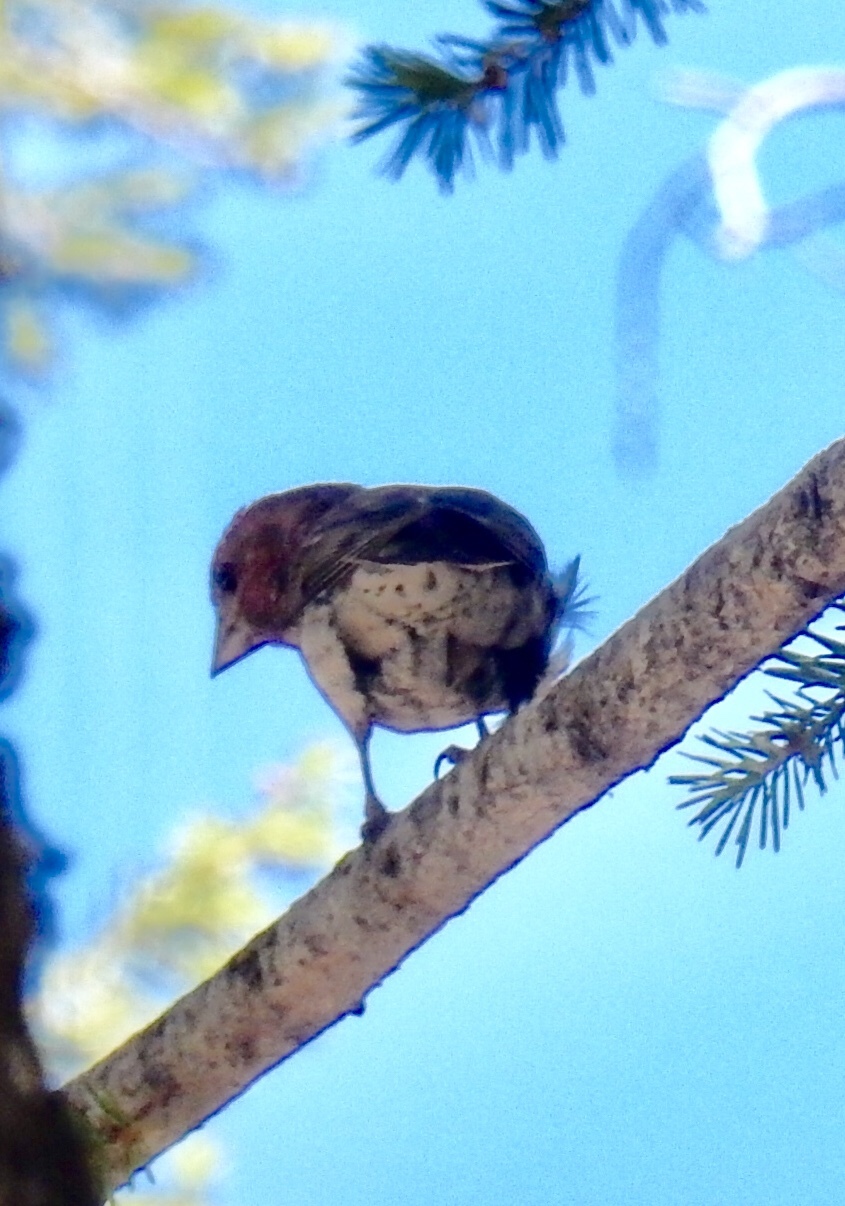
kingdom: Animalia
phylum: Chordata
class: Aves
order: Passeriformes
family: Fringillidae
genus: Haemorhous
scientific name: Haemorhous cassinii
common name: Cassin's finch
